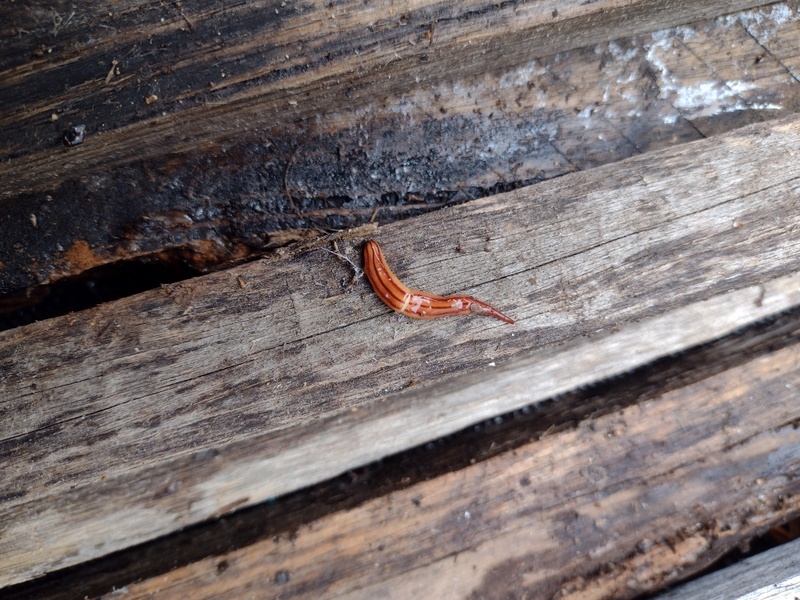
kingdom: Animalia
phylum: Platyhelminthes
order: Tricladida
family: Geoplanidae
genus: Anzoplana
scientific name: Anzoplana trilineata
